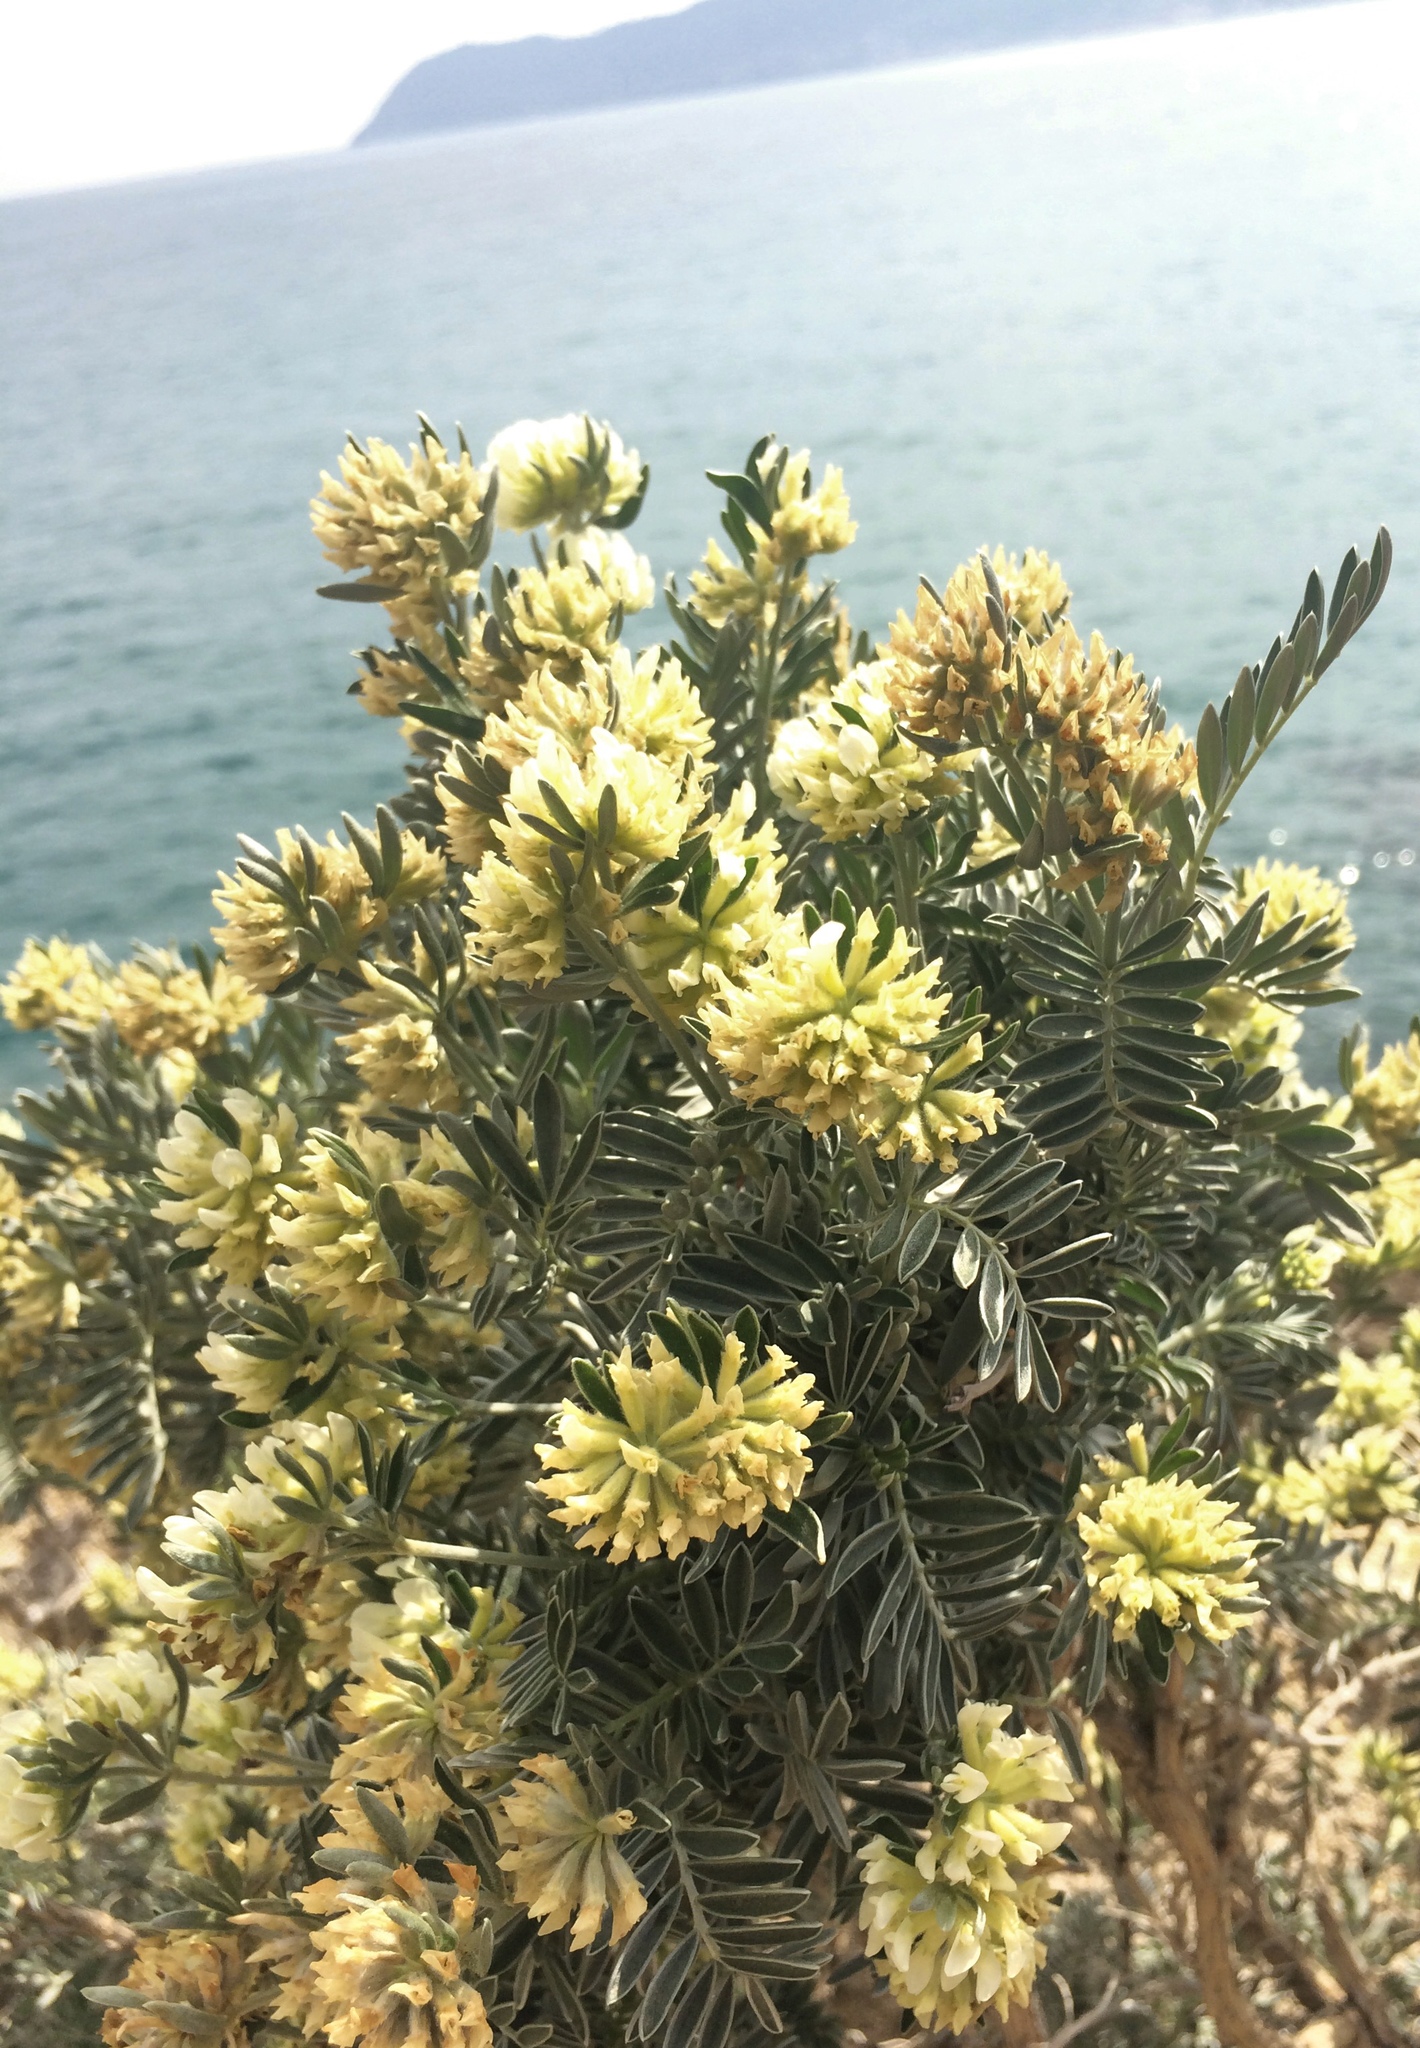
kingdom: Plantae
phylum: Tracheophyta
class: Magnoliopsida
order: Fabales
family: Fabaceae
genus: Anthyllis
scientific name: Anthyllis barba-jovis
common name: Jupiter's-beard
